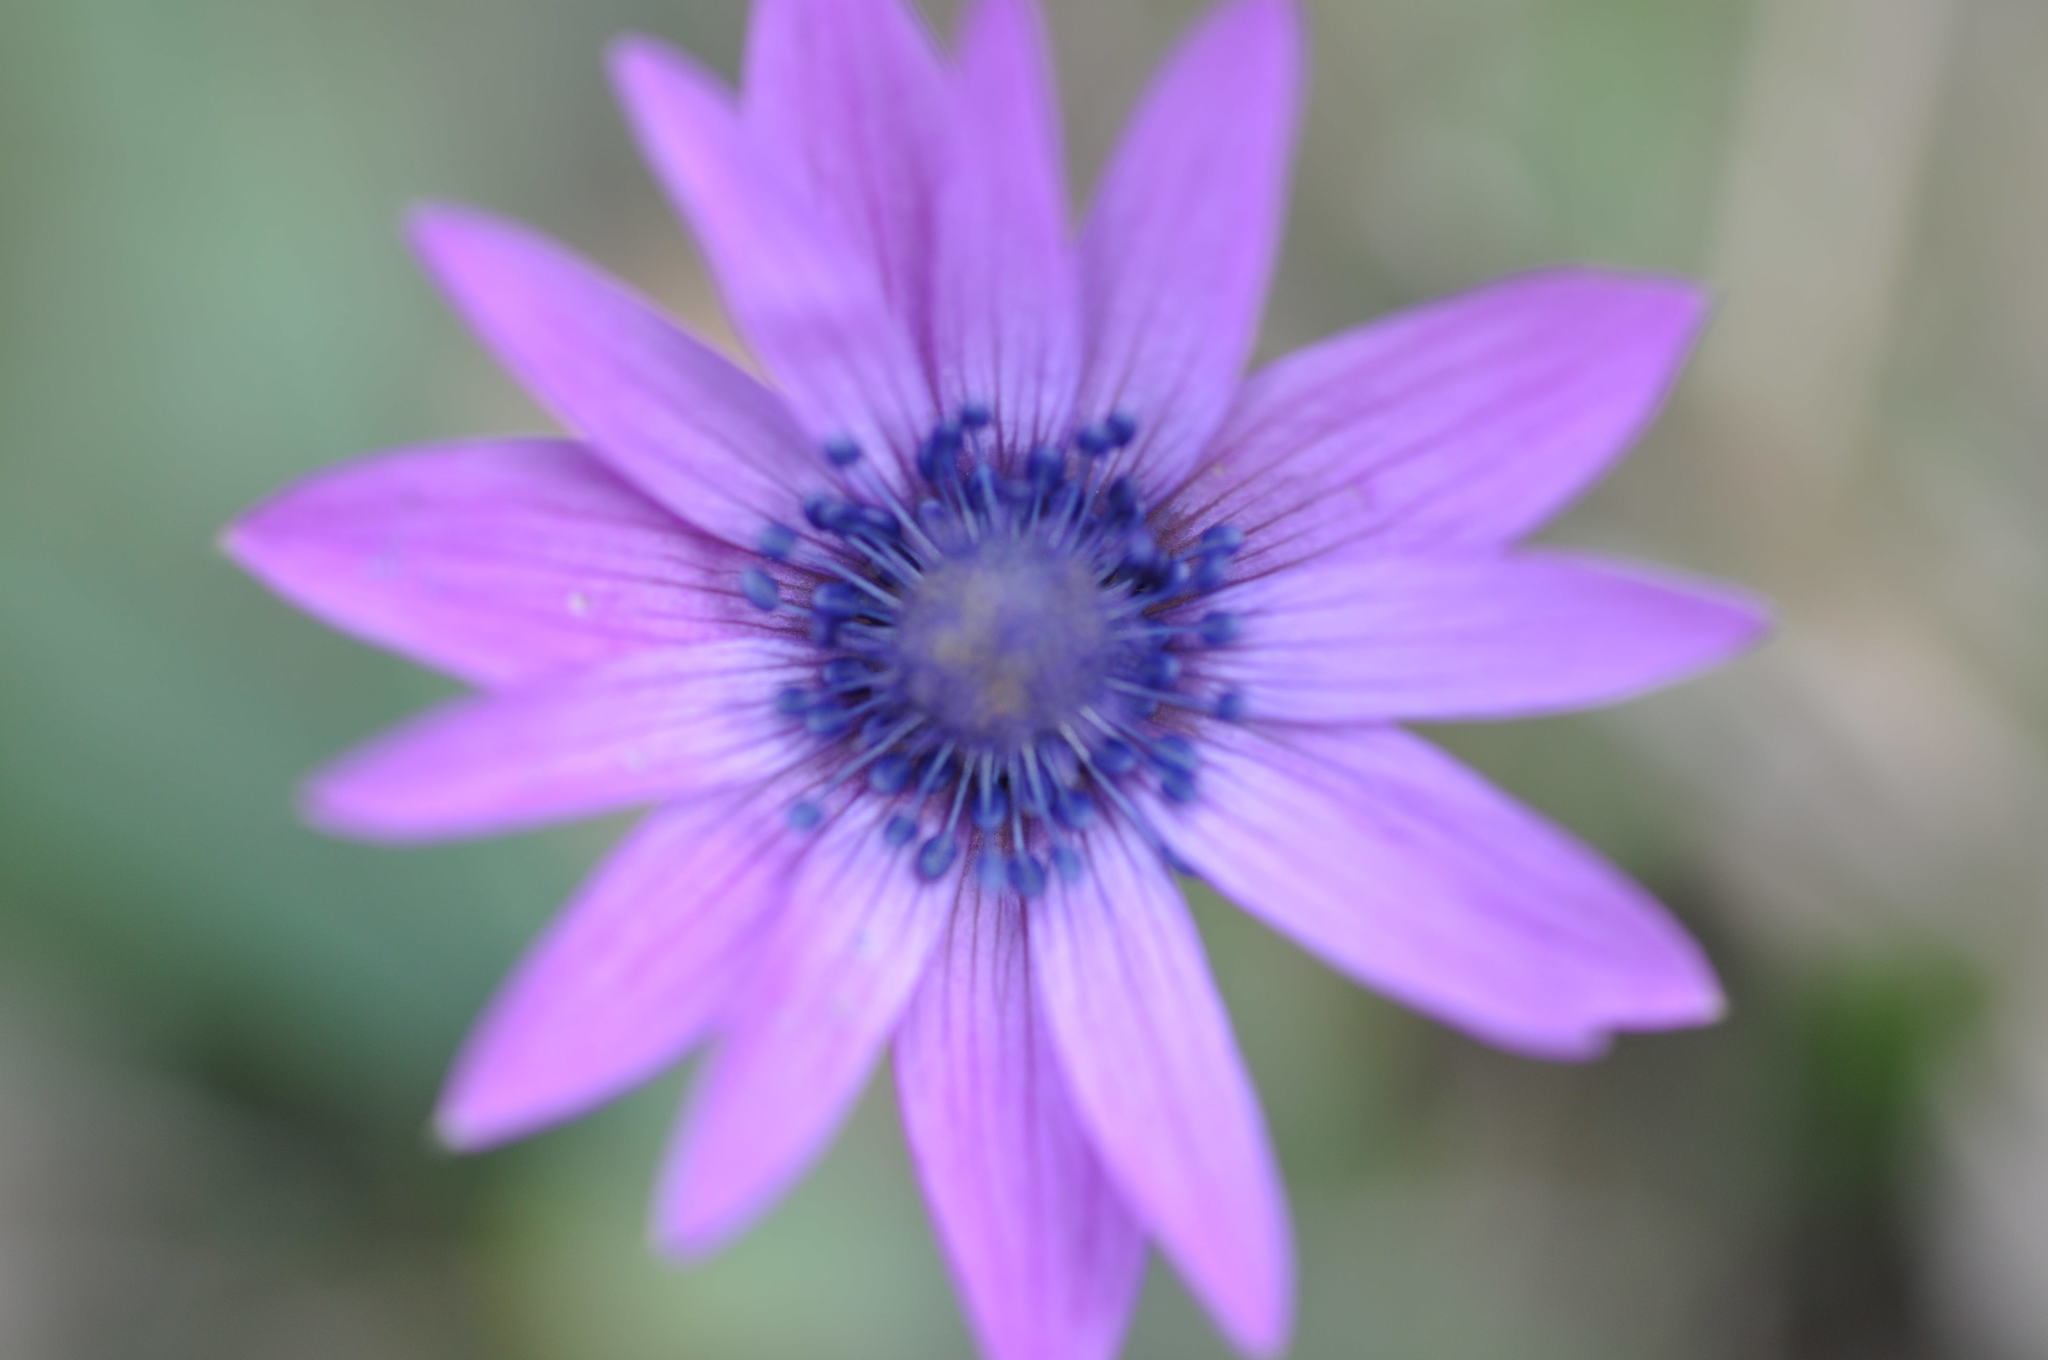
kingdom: Plantae
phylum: Tracheophyta
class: Magnoliopsida
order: Ranunculales
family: Ranunculaceae
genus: Anemone
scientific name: Anemone hortensis
